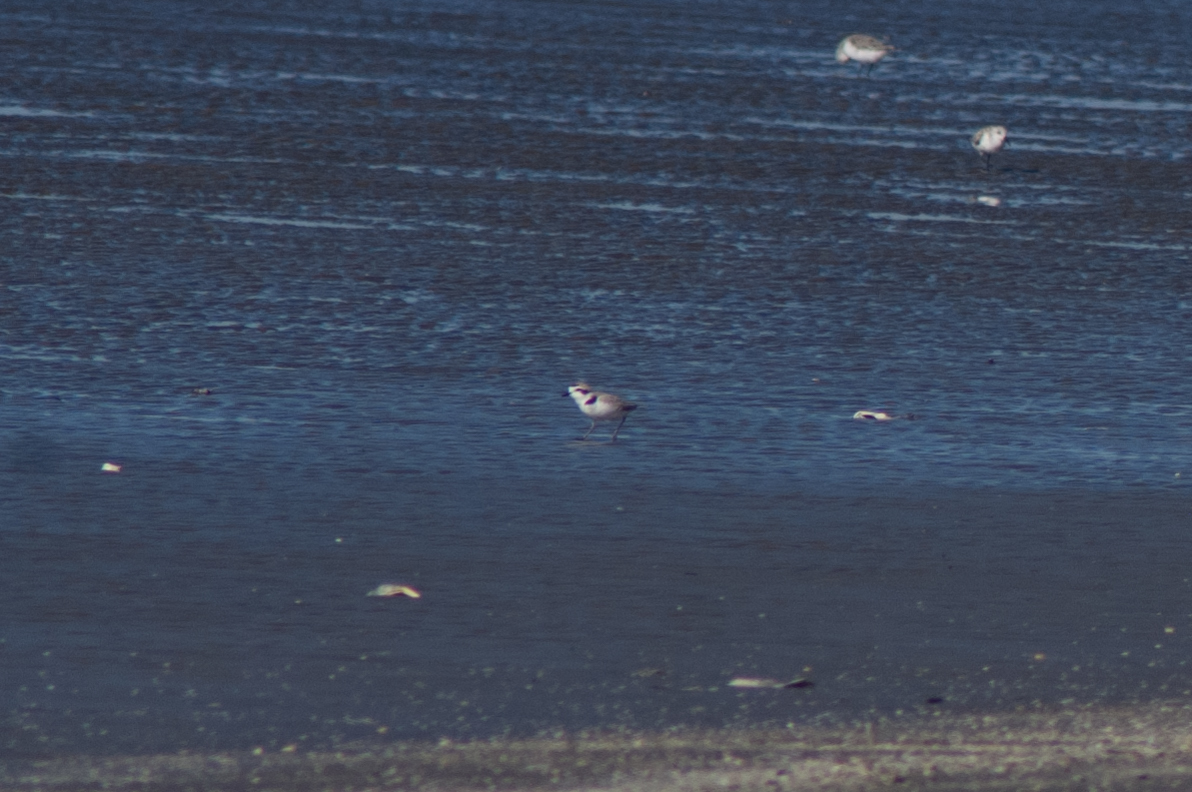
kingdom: Animalia
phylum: Chordata
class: Aves
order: Charadriiformes
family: Charadriidae
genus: Anarhynchus
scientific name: Anarhynchus
